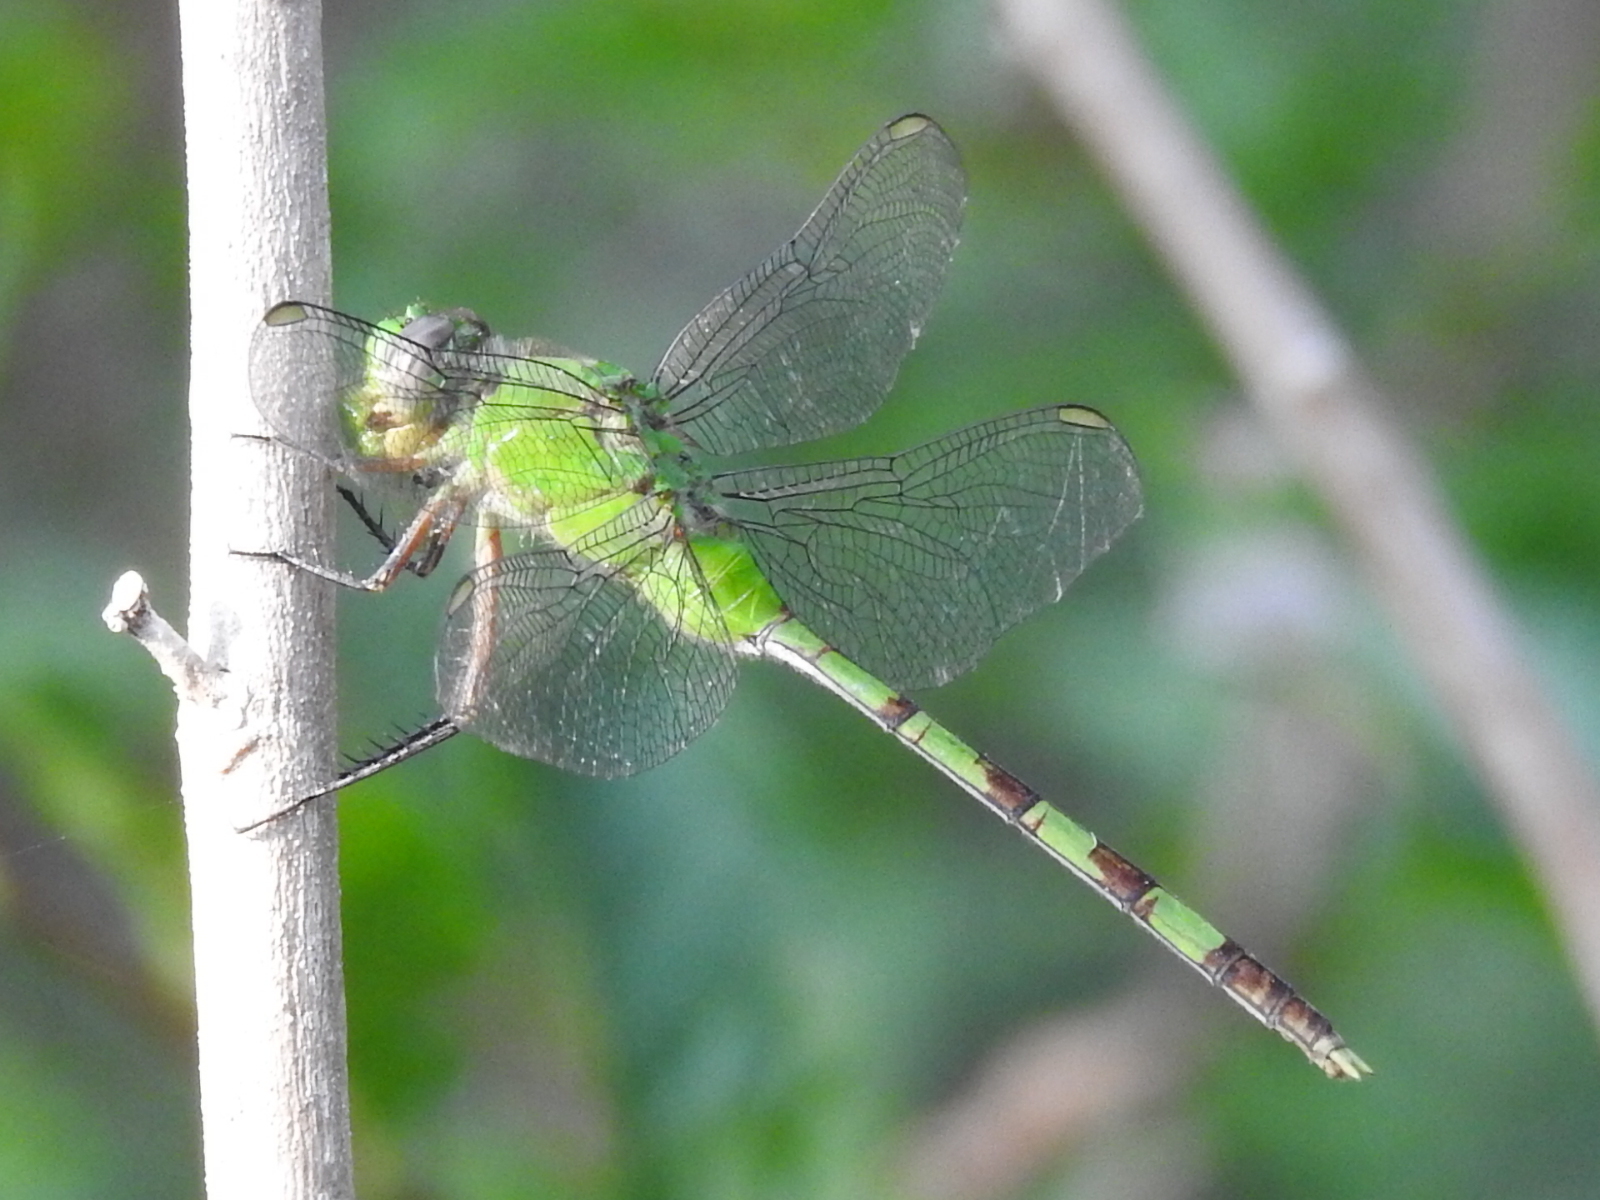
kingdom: Animalia
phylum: Arthropoda
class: Insecta
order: Odonata
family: Libellulidae
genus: Erythemis
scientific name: Erythemis vesiculosa
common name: Great pondhawk
